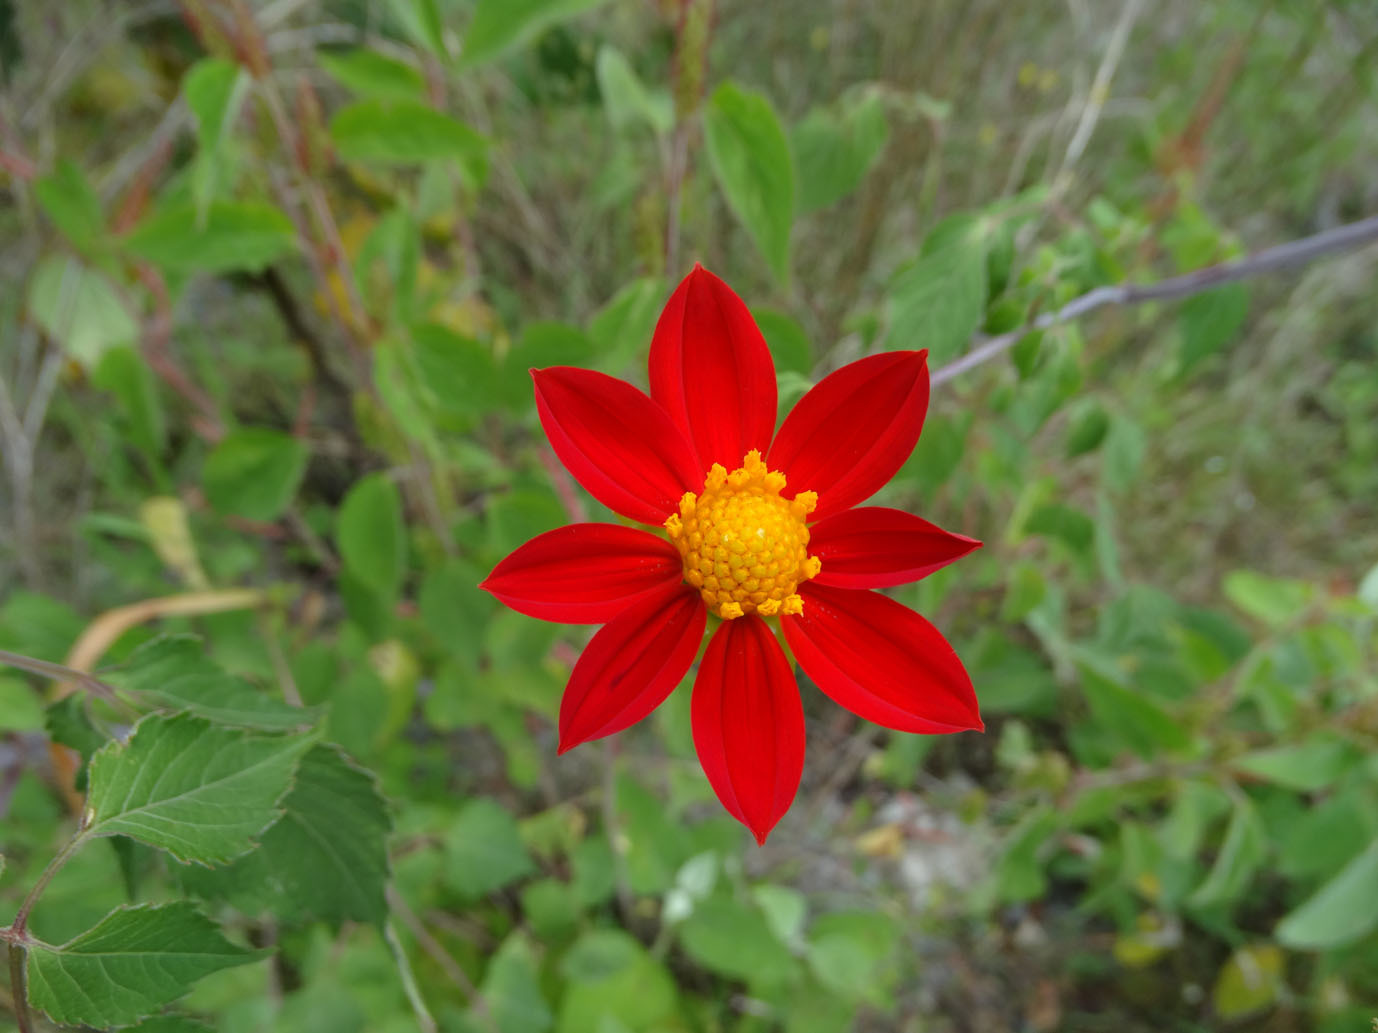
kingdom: Plantae
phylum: Tracheophyta
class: Magnoliopsida
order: Asterales
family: Asteraceae
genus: Dahlia
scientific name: Dahlia coccinea
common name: Red dahlia
